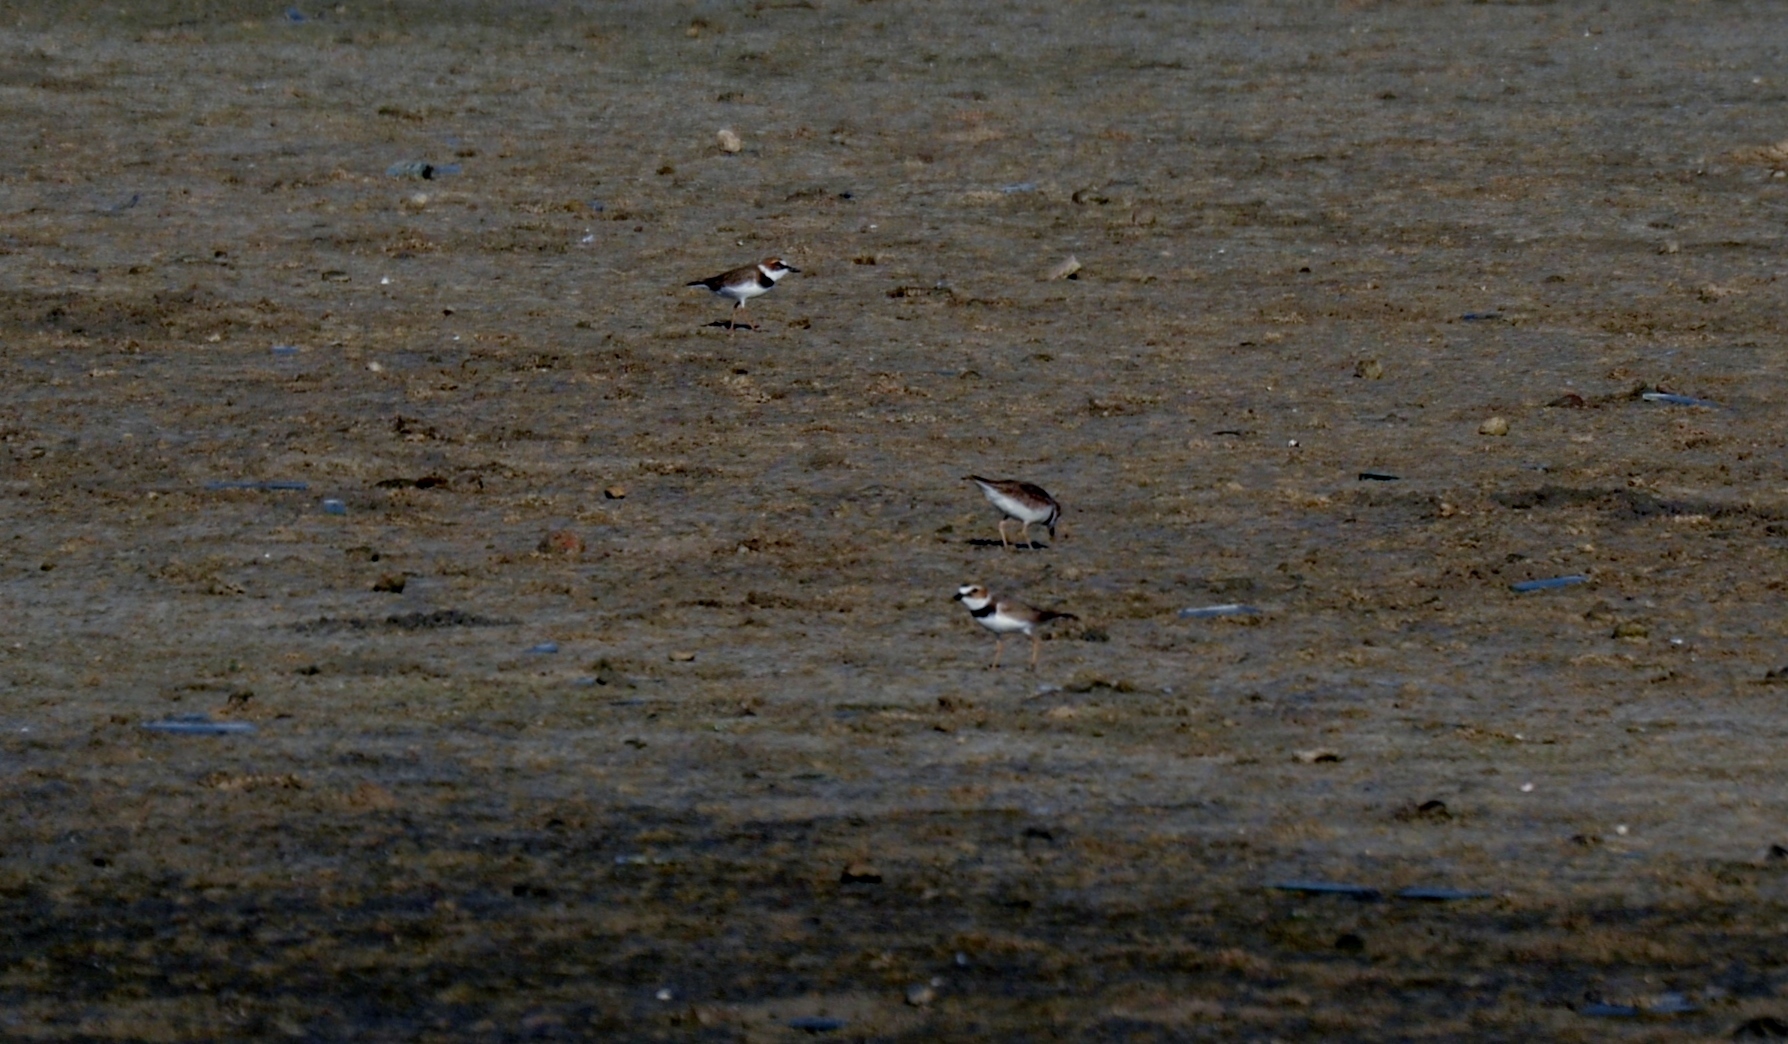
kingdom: Animalia
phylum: Chordata
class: Aves
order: Charadriiformes
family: Charadriidae
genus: Anarhynchus
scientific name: Anarhynchus
